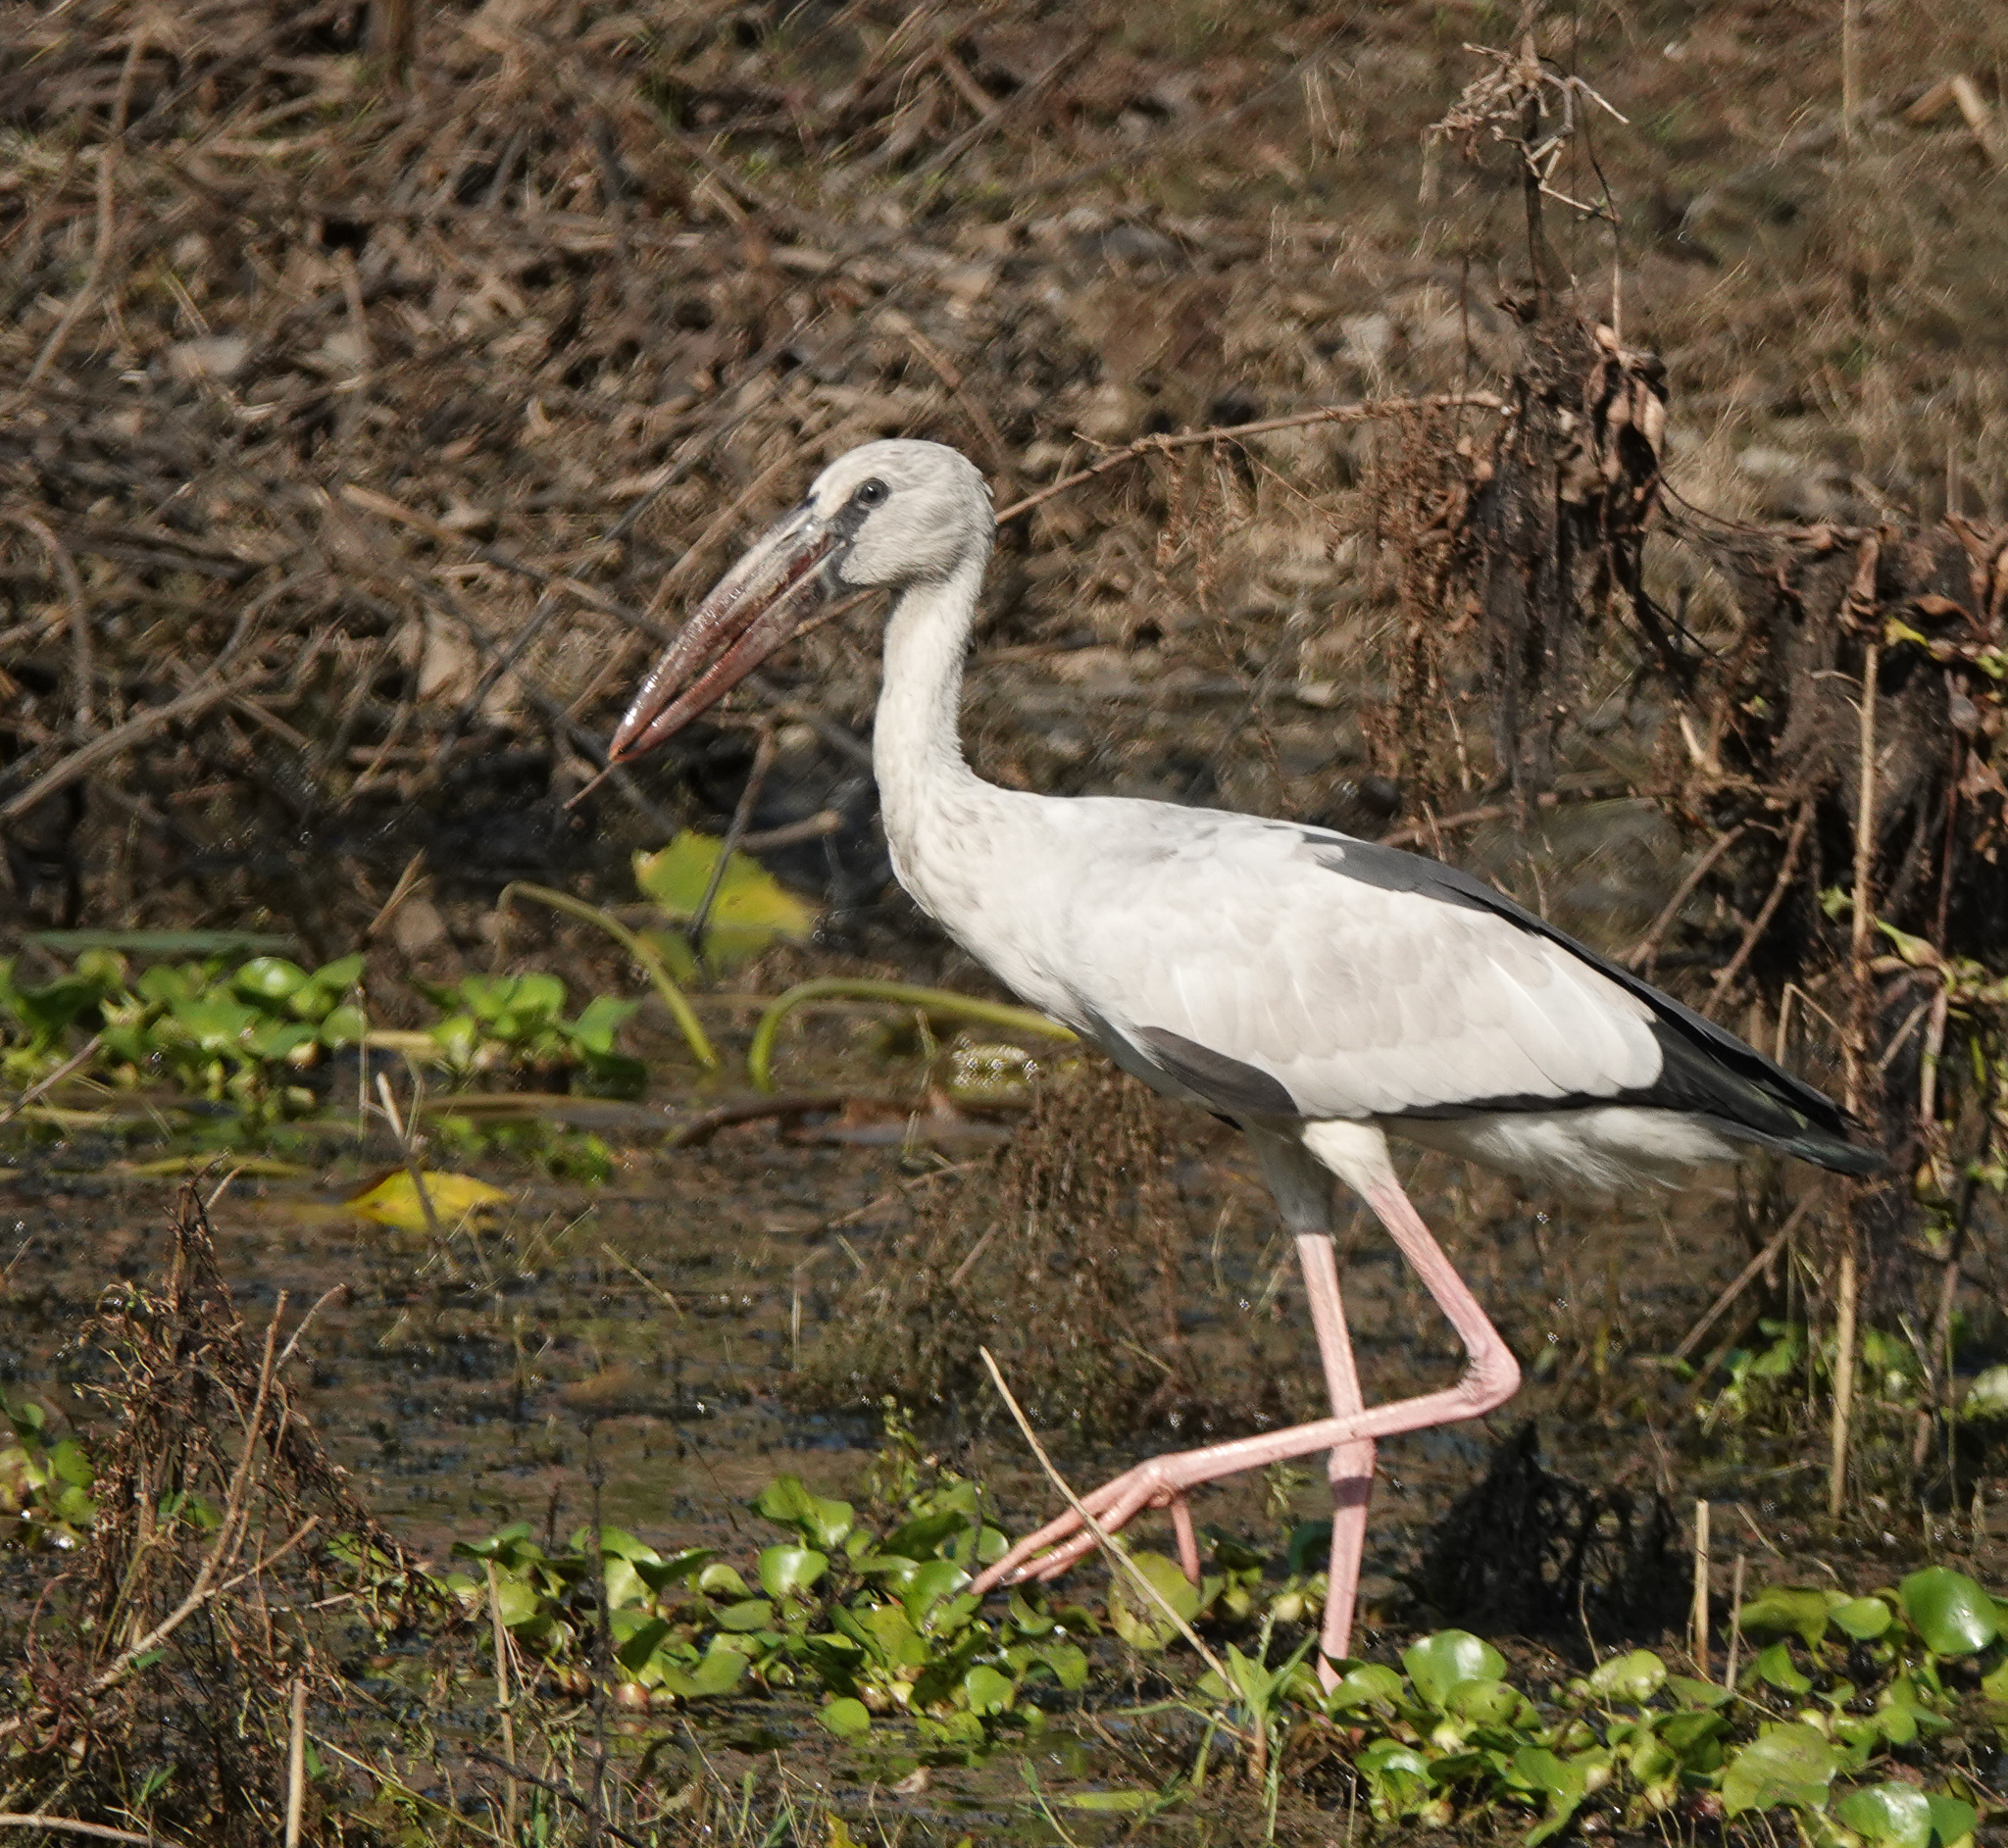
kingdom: Animalia
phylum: Chordata
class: Aves
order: Ciconiiformes
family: Ciconiidae
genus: Anastomus
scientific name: Anastomus oscitans
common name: Asian openbill
